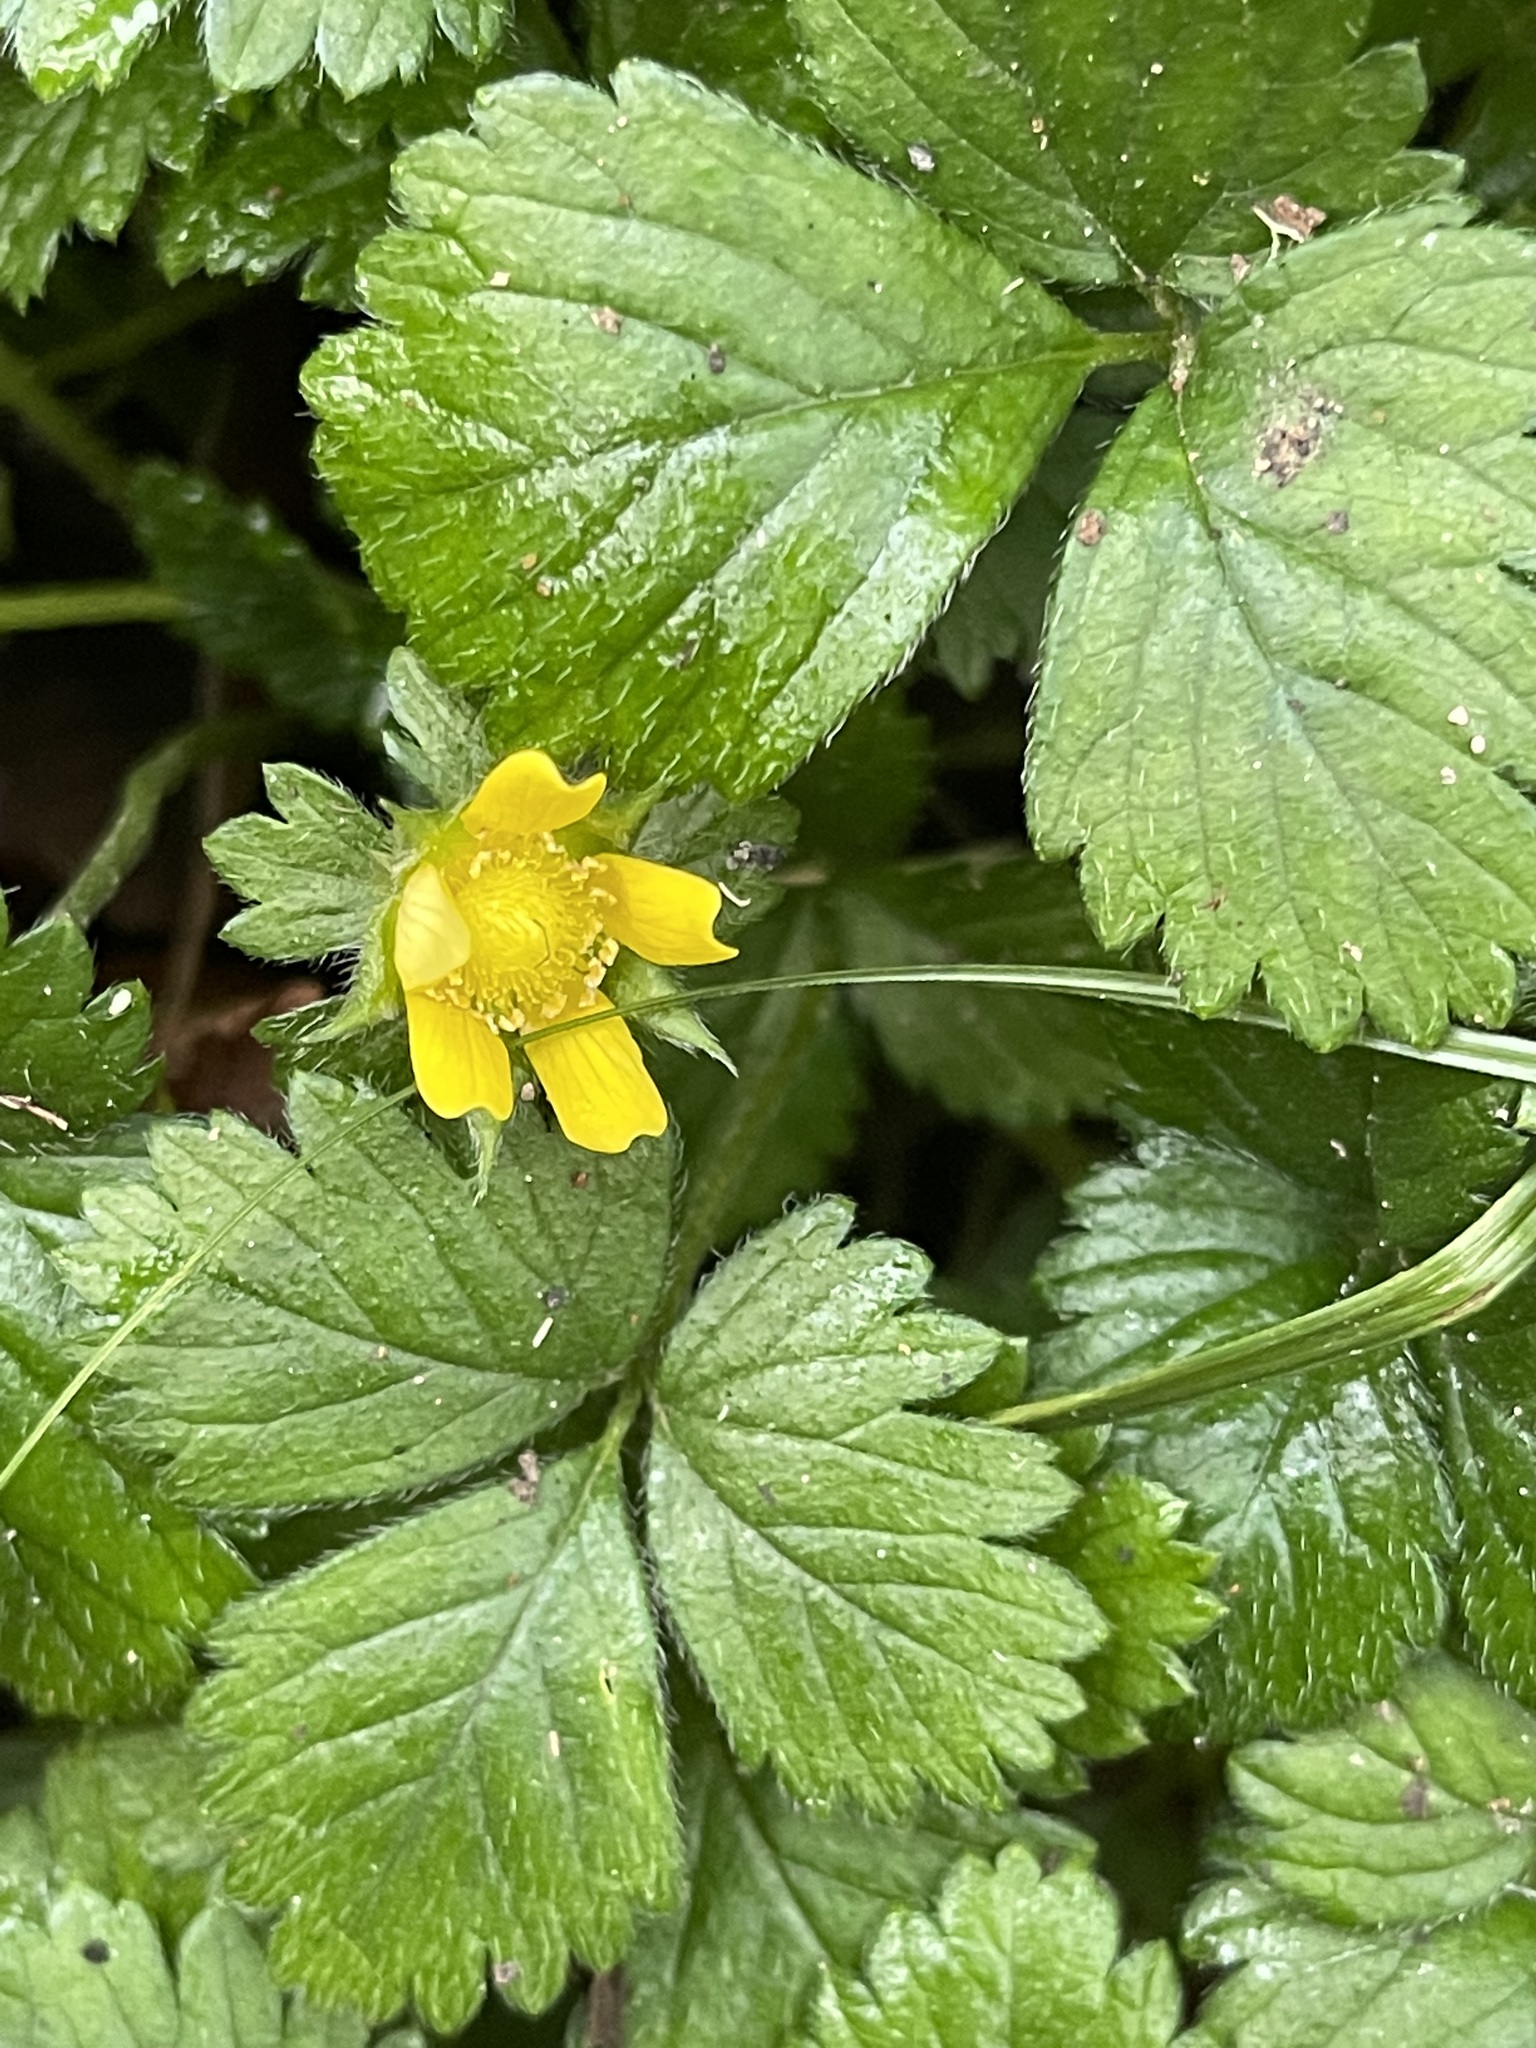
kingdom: Plantae
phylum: Tracheophyta
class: Magnoliopsida
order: Rosales
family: Rosaceae
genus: Potentilla
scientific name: Potentilla indica
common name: Yellow-flowered strawberry
